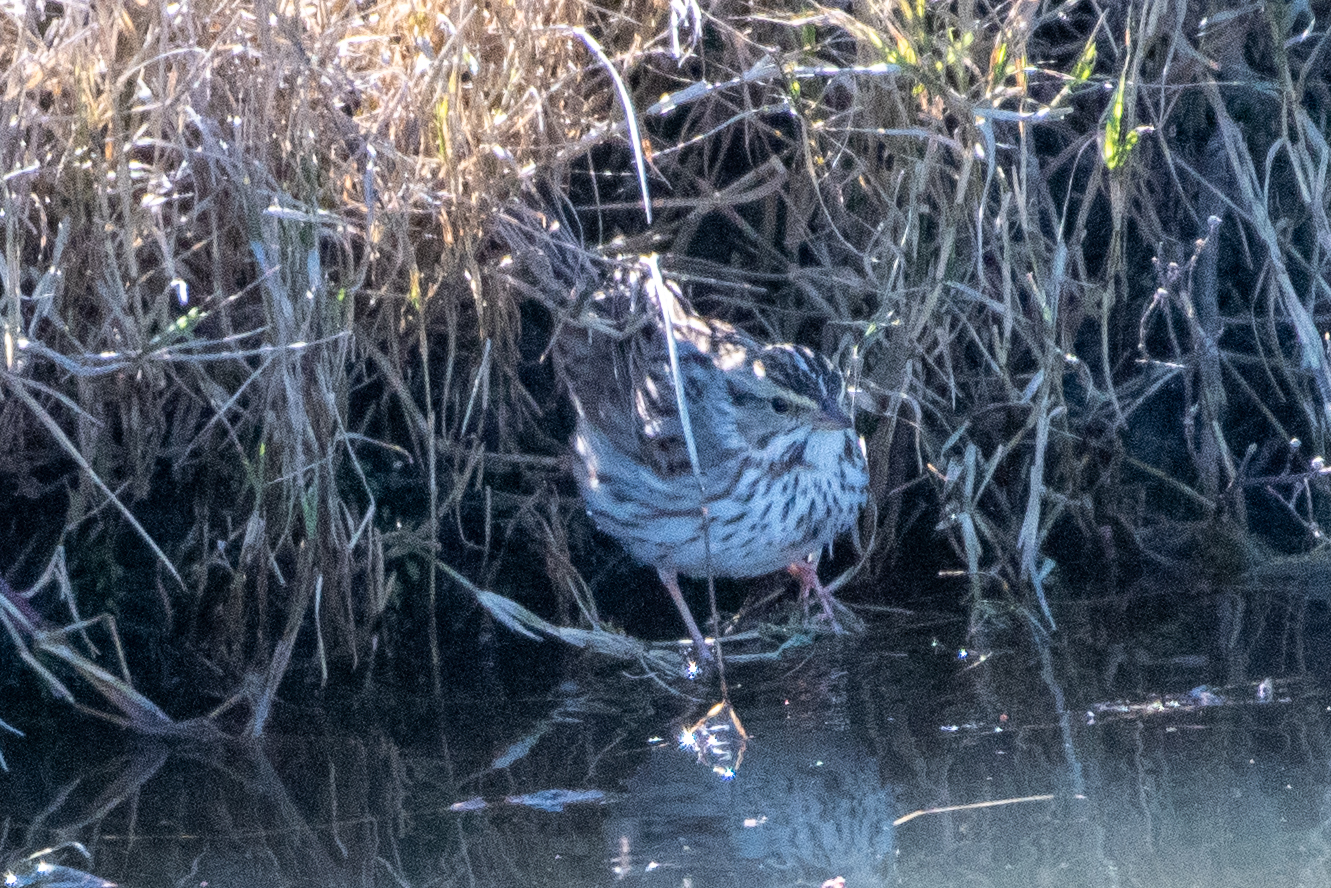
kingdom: Animalia
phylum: Chordata
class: Aves
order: Passeriformes
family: Passerellidae
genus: Passerculus
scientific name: Passerculus sandwichensis
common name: Savannah sparrow
